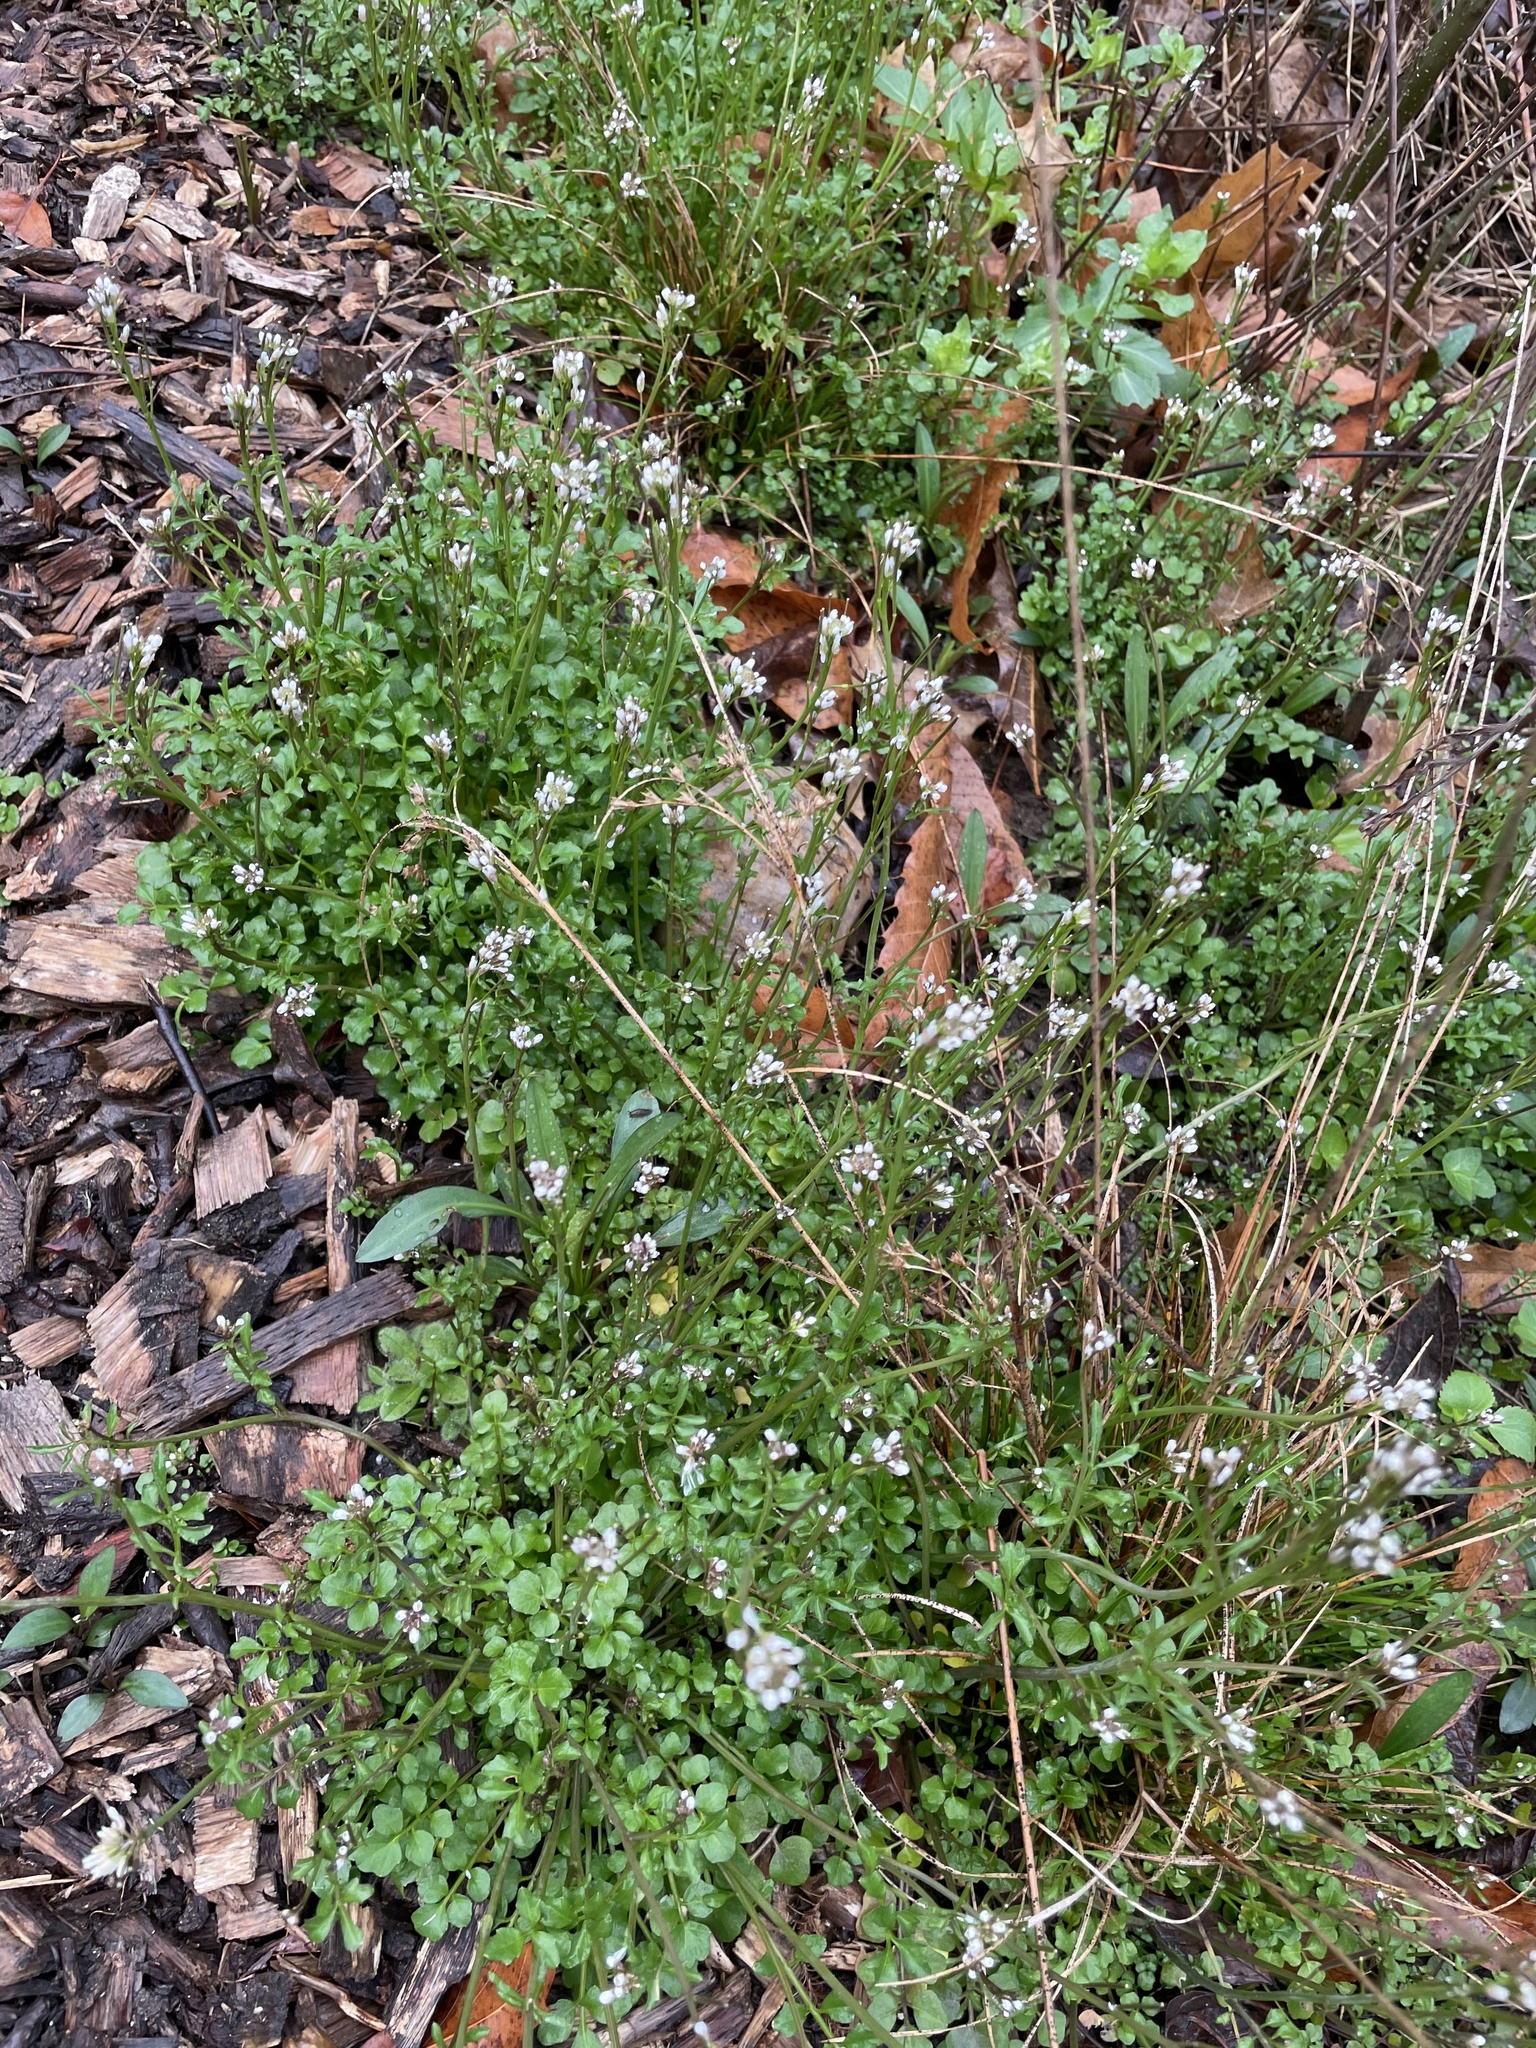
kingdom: Plantae
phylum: Tracheophyta
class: Magnoliopsida
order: Brassicales
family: Brassicaceae
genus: Cardamine
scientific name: Cardamine hirsuta
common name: Hairy bittercress
